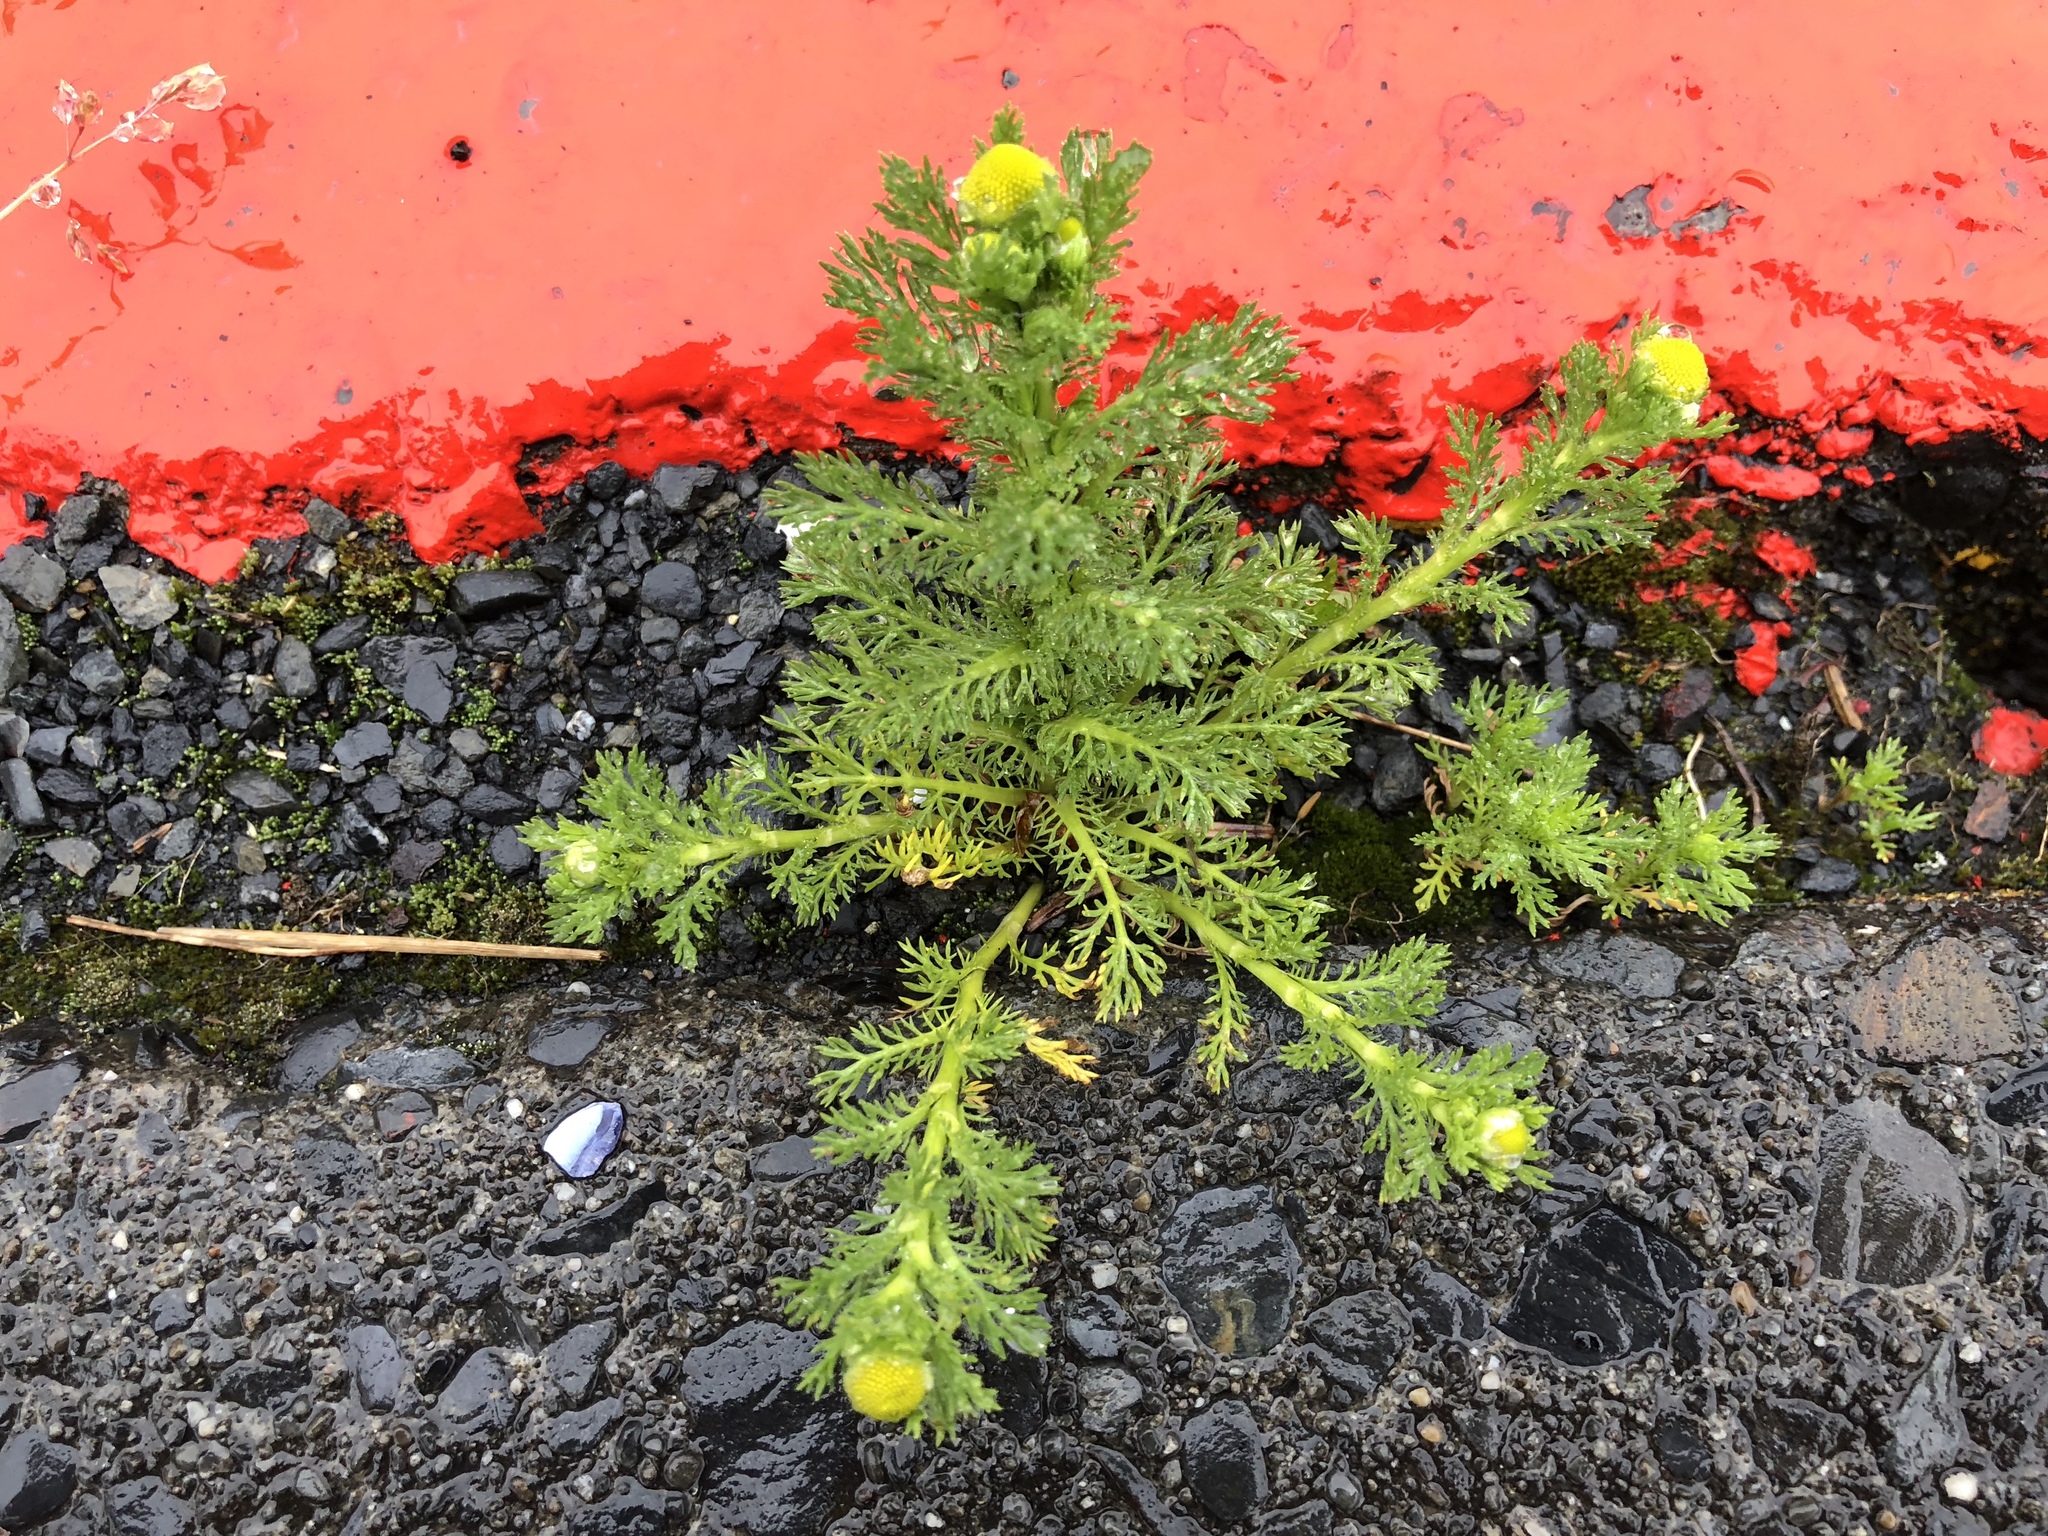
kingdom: Plantae
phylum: Tracheophyta
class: Magnoliopsida
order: Asterales
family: Asteraceae
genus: Matricaria
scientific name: Matricaria discoidea
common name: Disc mayweed
